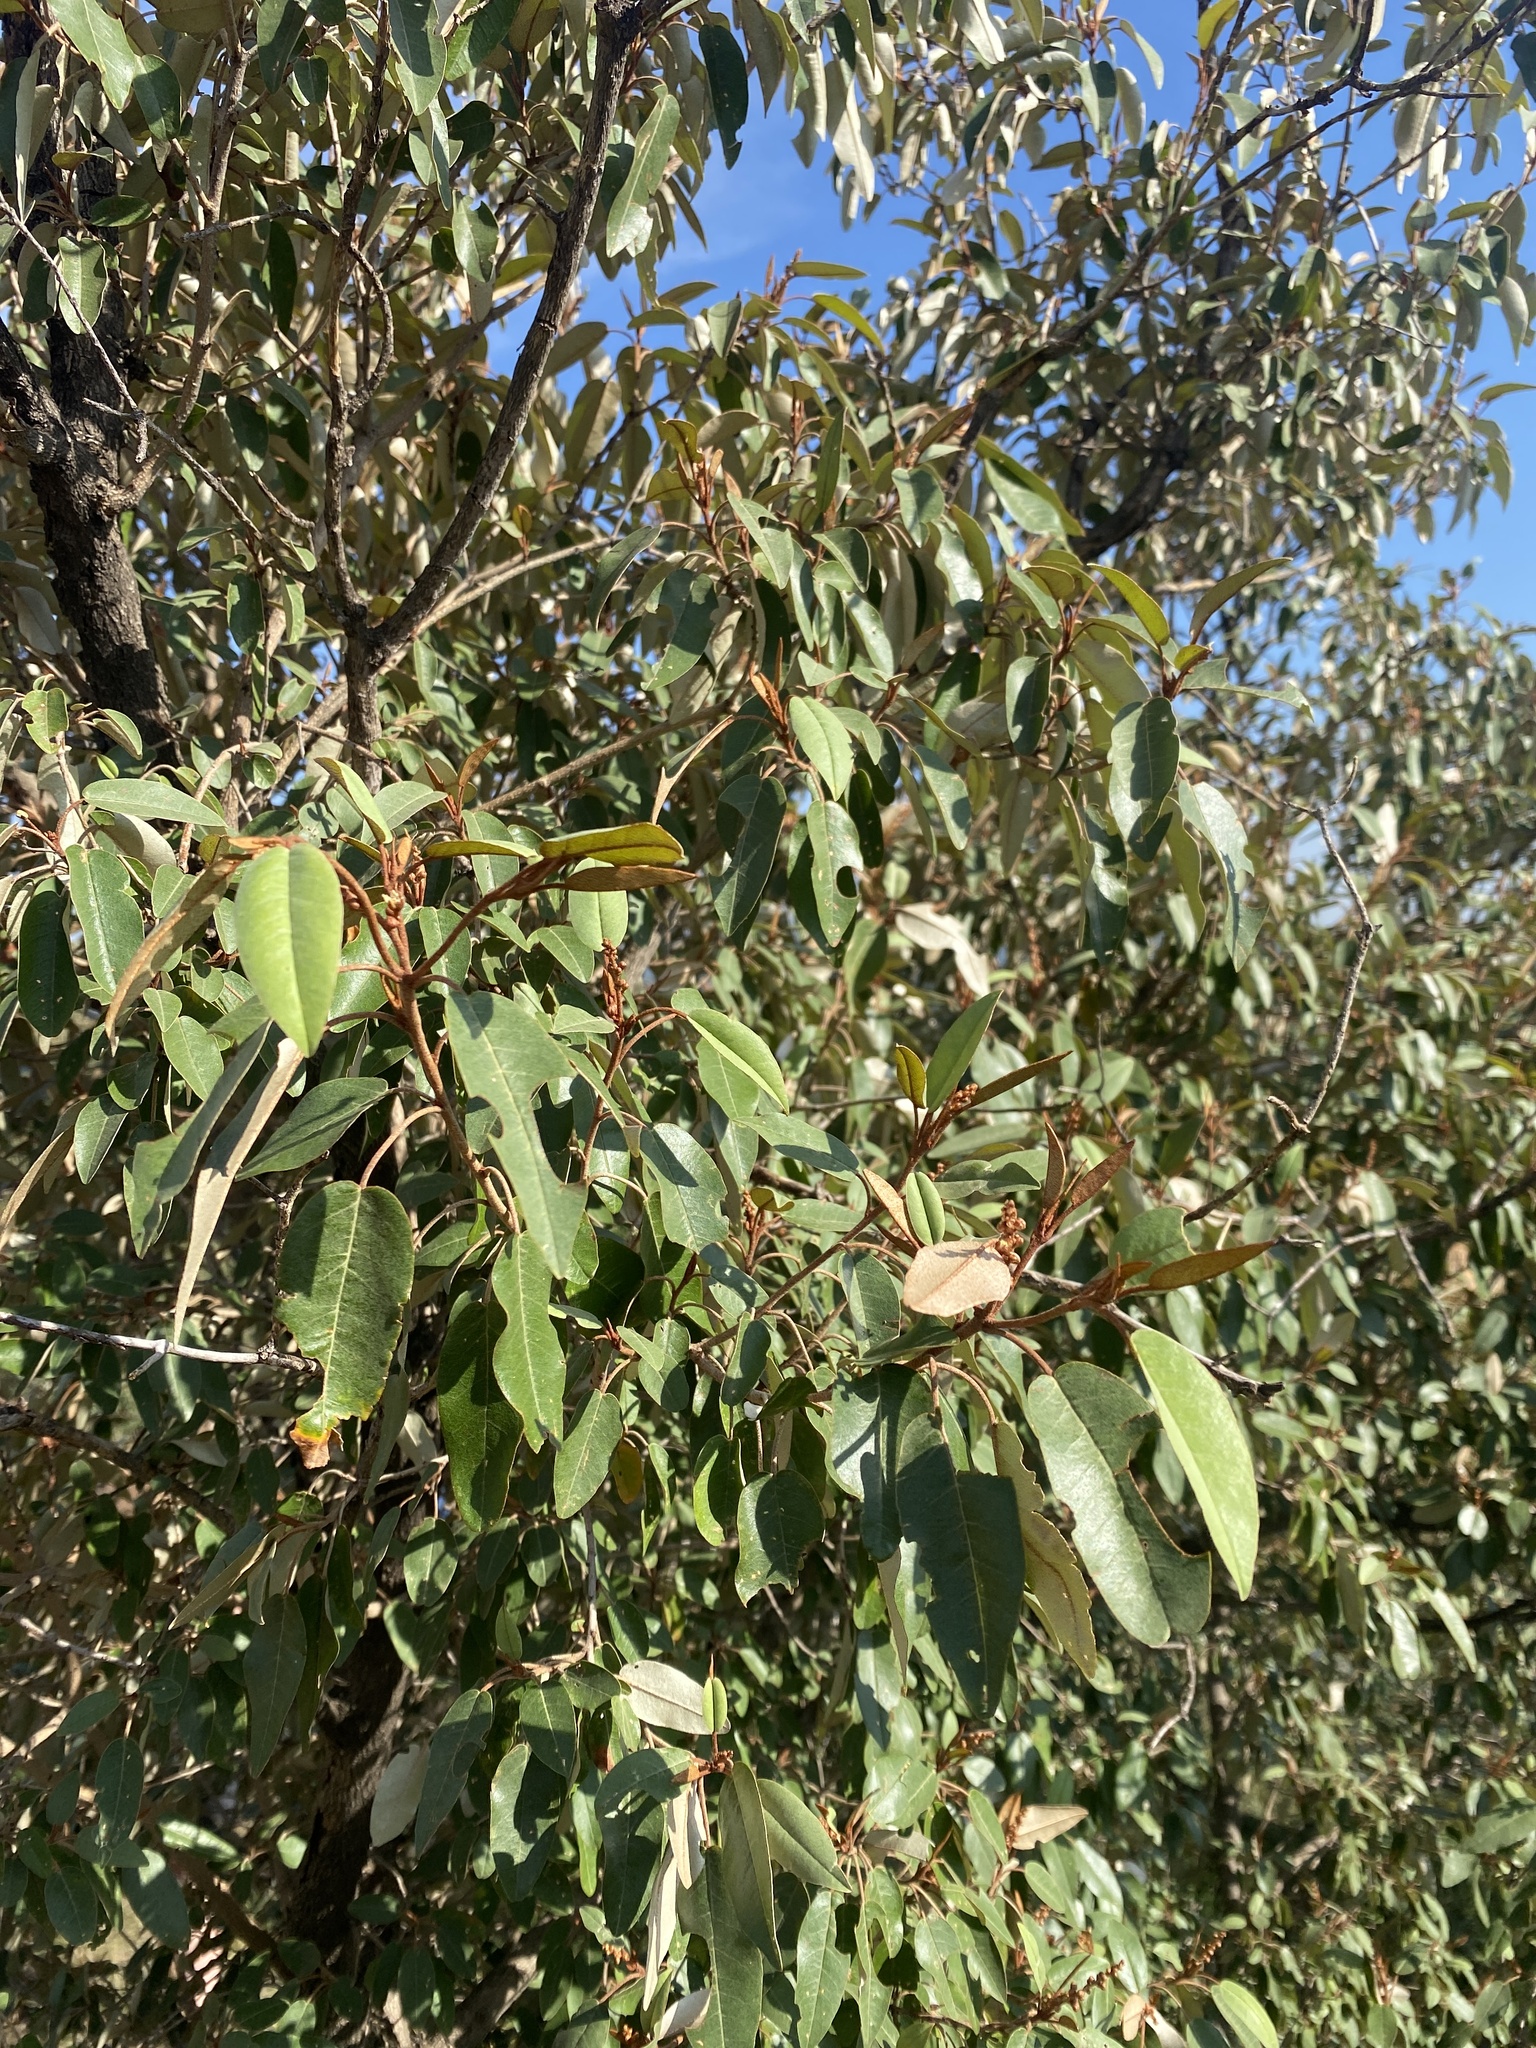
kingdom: Plantae
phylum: Tracheophyta
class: Magnoliopsida
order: Malpighiales
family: Euphorbiaceae
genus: Croton
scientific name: Croton gratissimus
